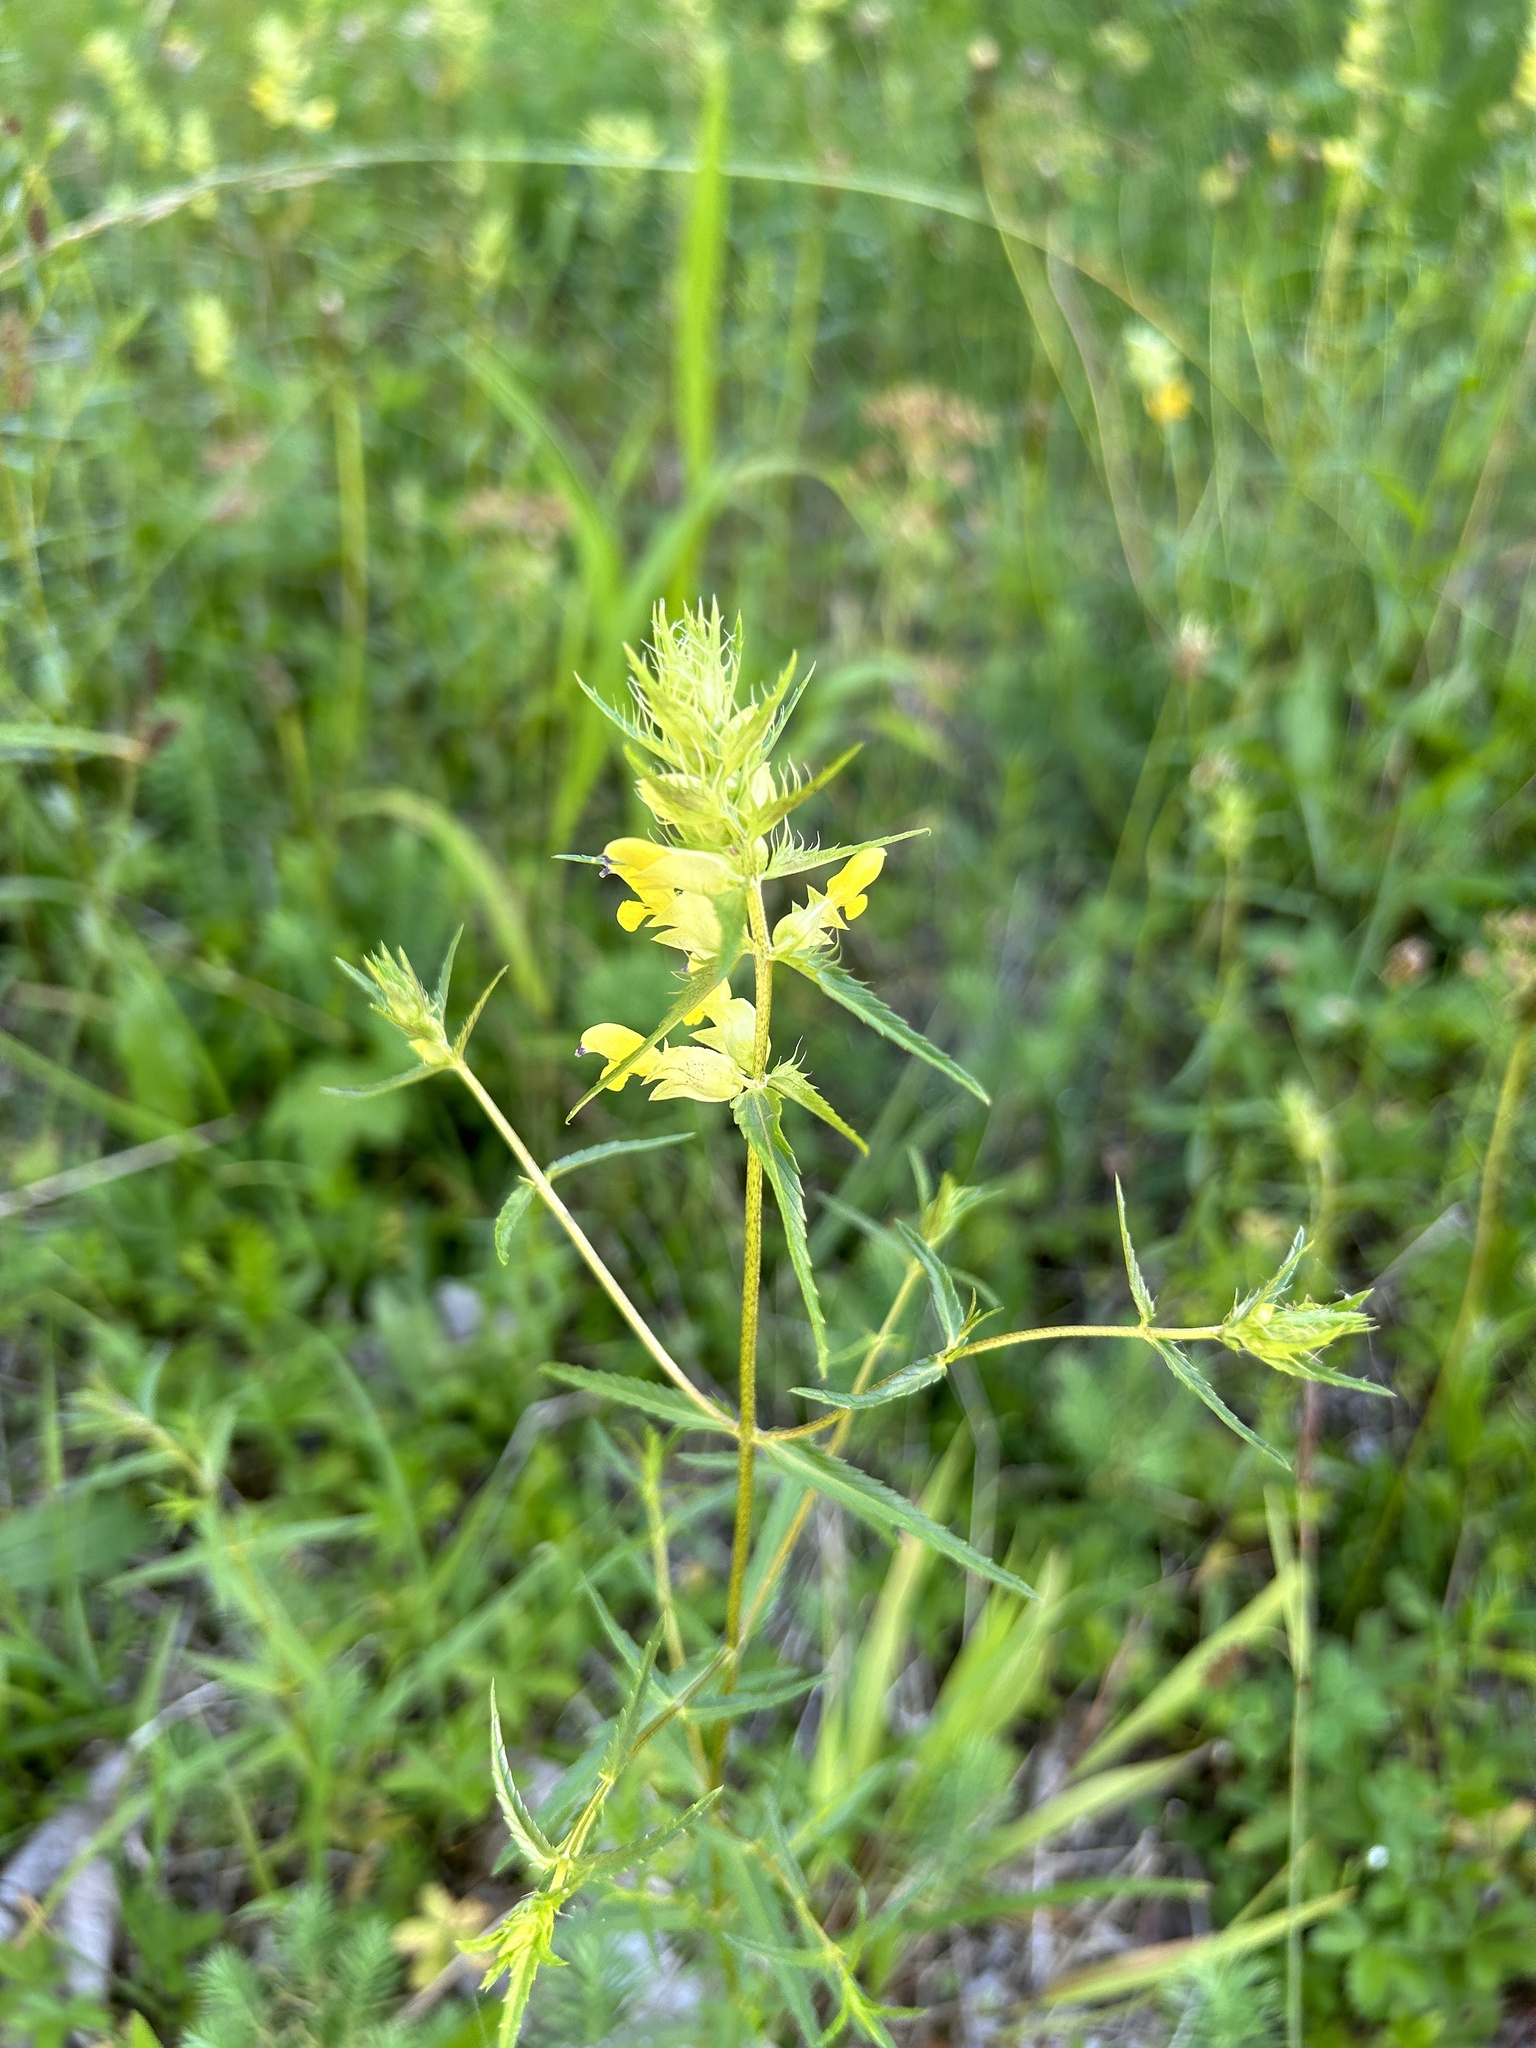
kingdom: Plantae
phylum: Tracheophyta
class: Magnoliopsida
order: Lamiales
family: Orobanchaceae
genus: Rhinanthus
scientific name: Rhinanthus glacialis
